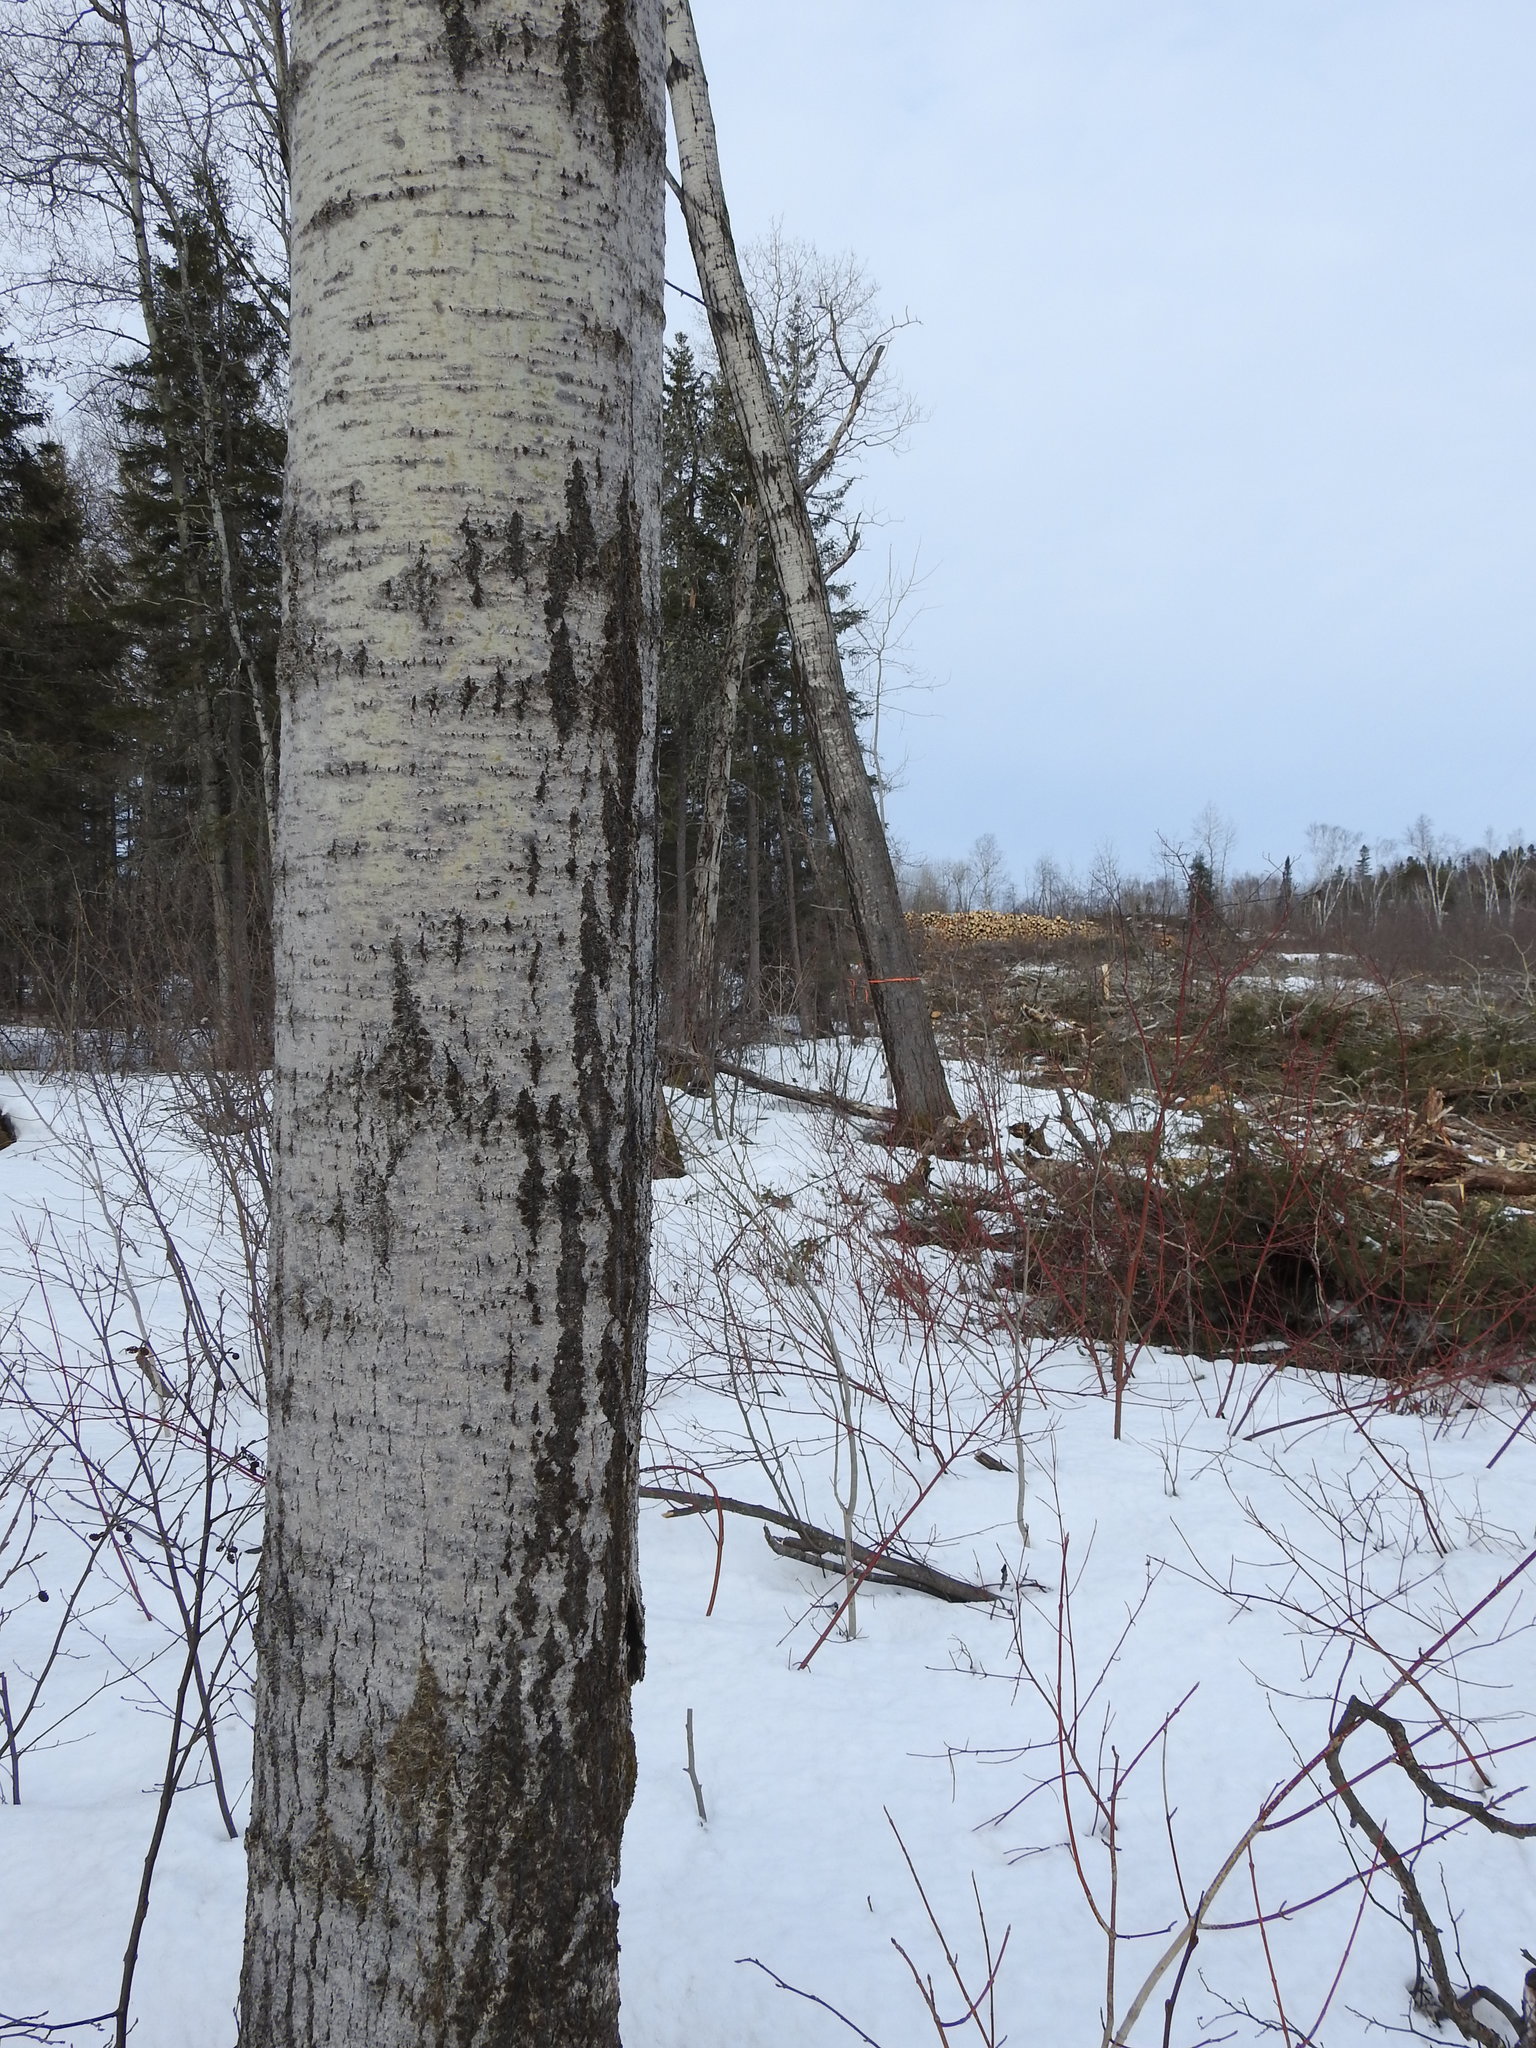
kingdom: Plantae
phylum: Tracheophyta
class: Magnoliopsida
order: Malpighiales
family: Salicaceae
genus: Populus
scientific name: Populus tremuloides
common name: Quaking aspen
